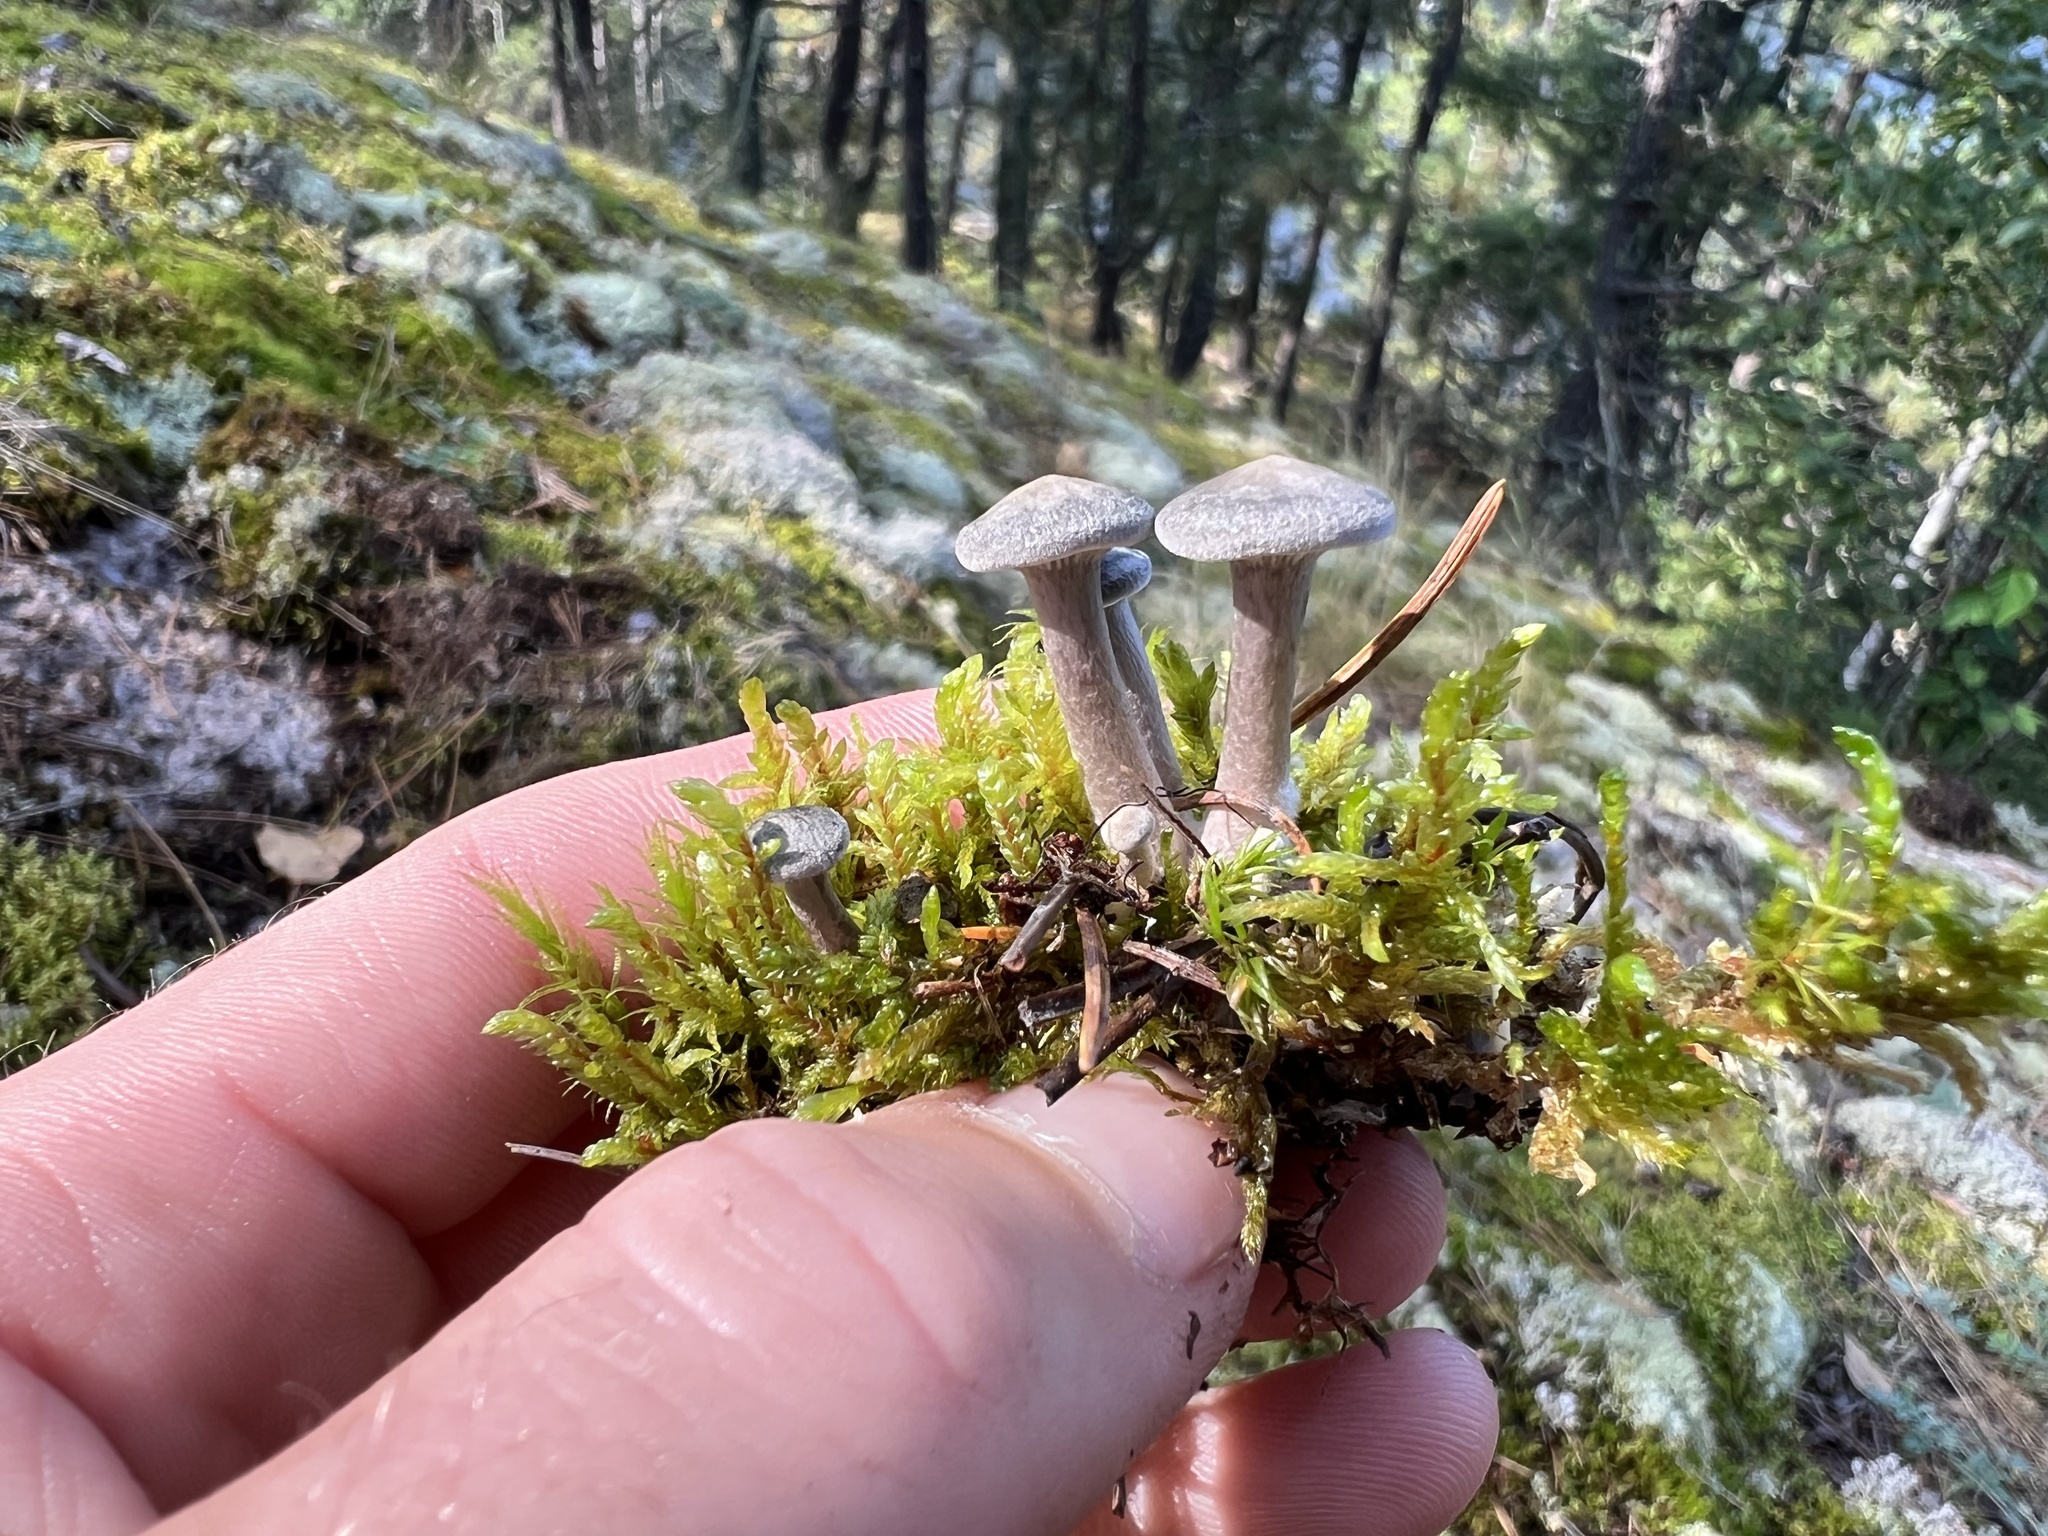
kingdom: Fungi
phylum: Basidiomycota
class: Agaricomycetes
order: Agaricales
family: Hygrophoraceae
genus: Cantharellula
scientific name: Cantharellula umbonata
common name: The humpback
